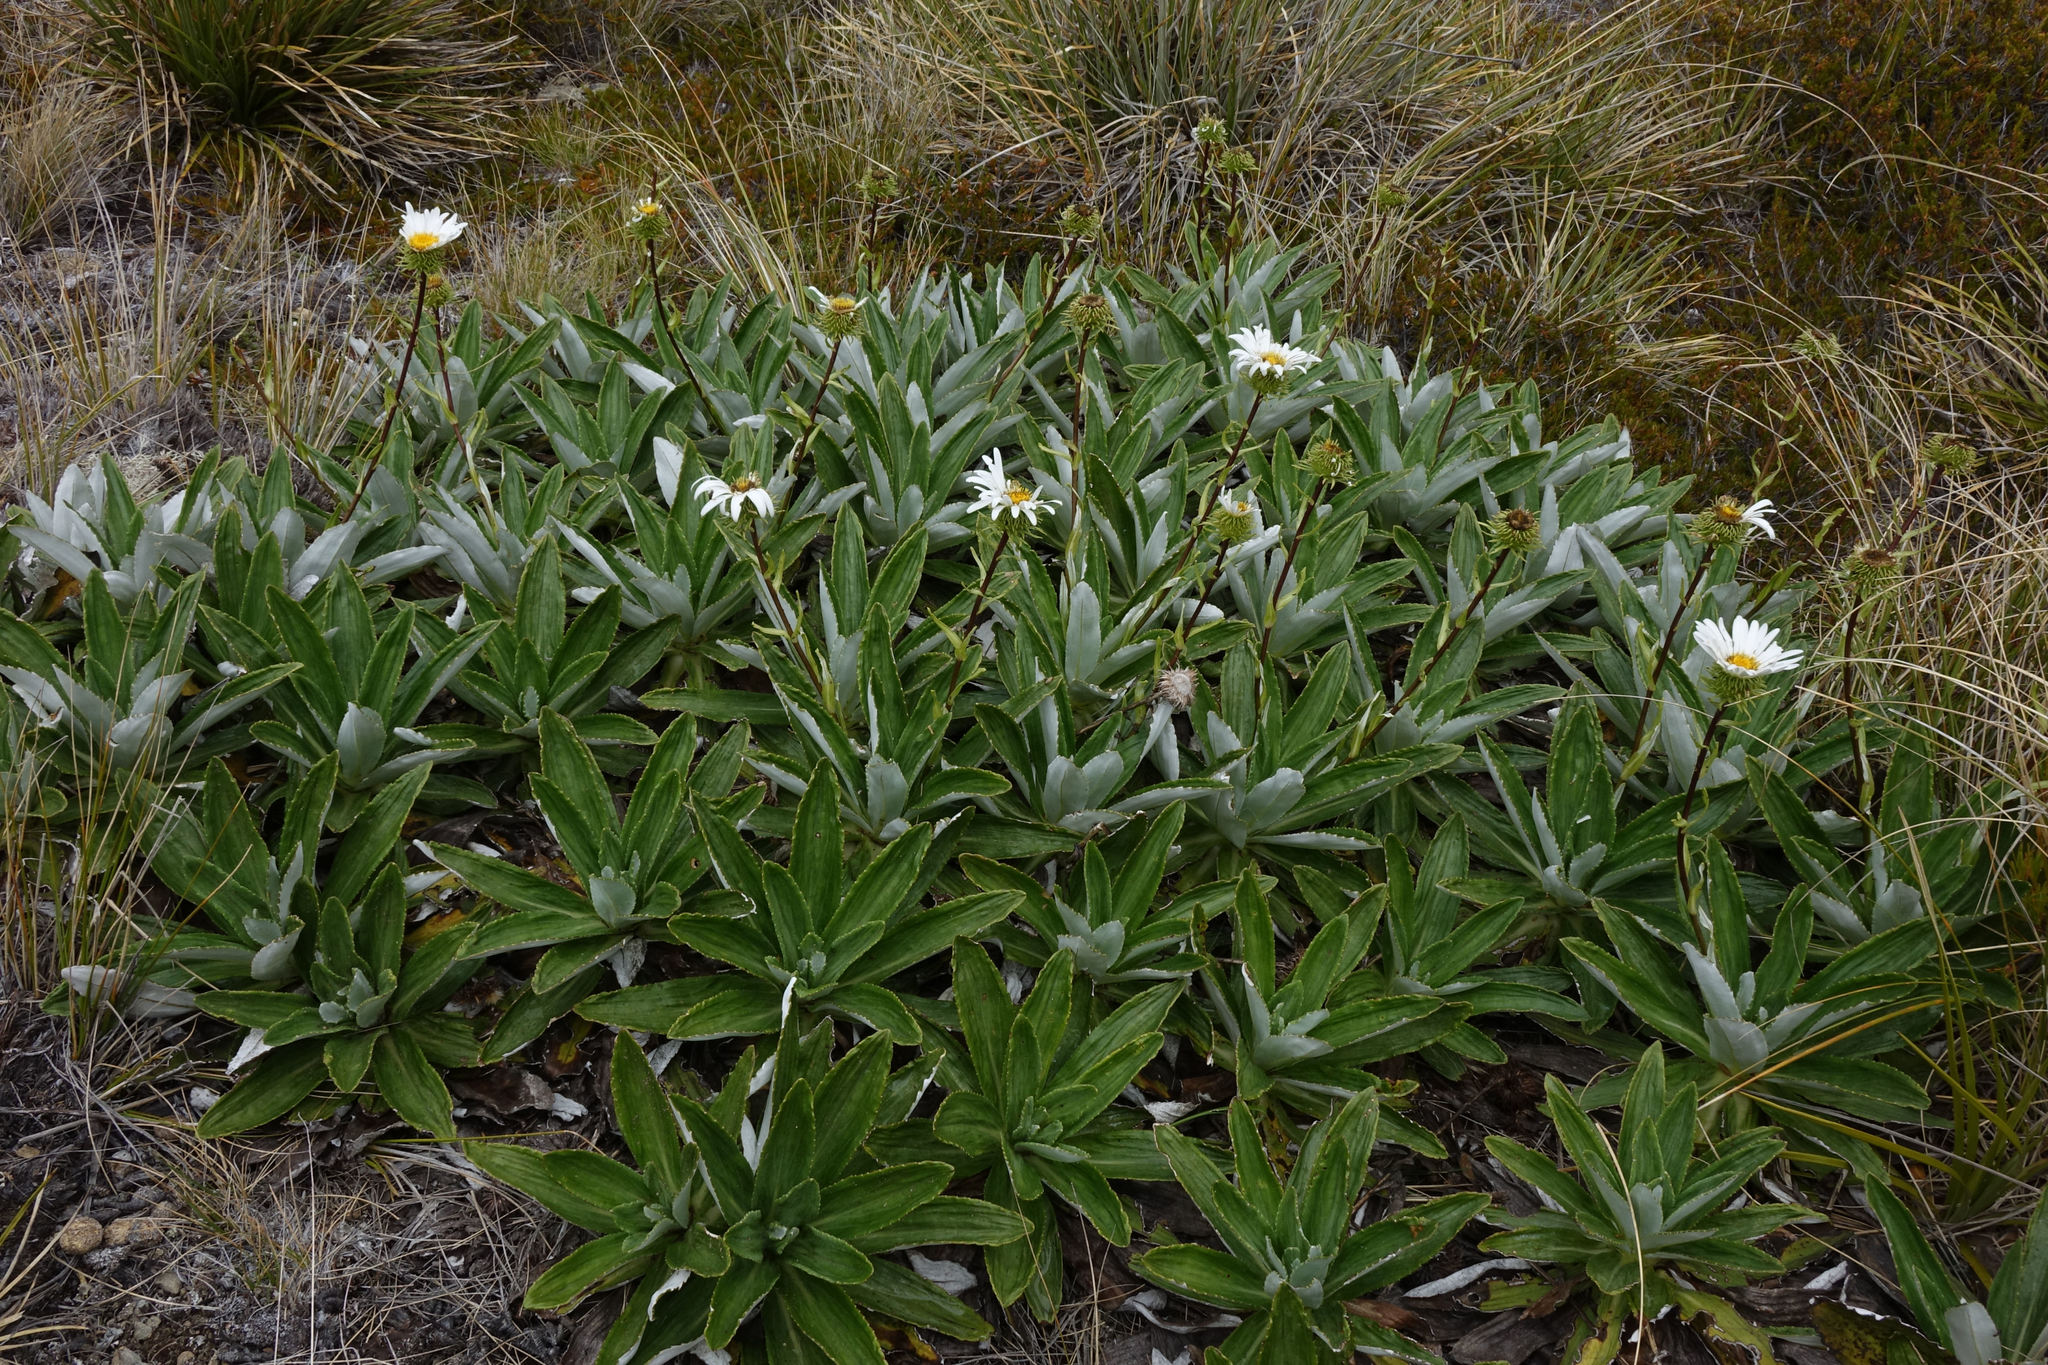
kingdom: Plantae
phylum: Tracheophyta
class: Magnoliopsida
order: Asterales
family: Asteraceae
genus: Celmisia
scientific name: Celmisia densiflora
